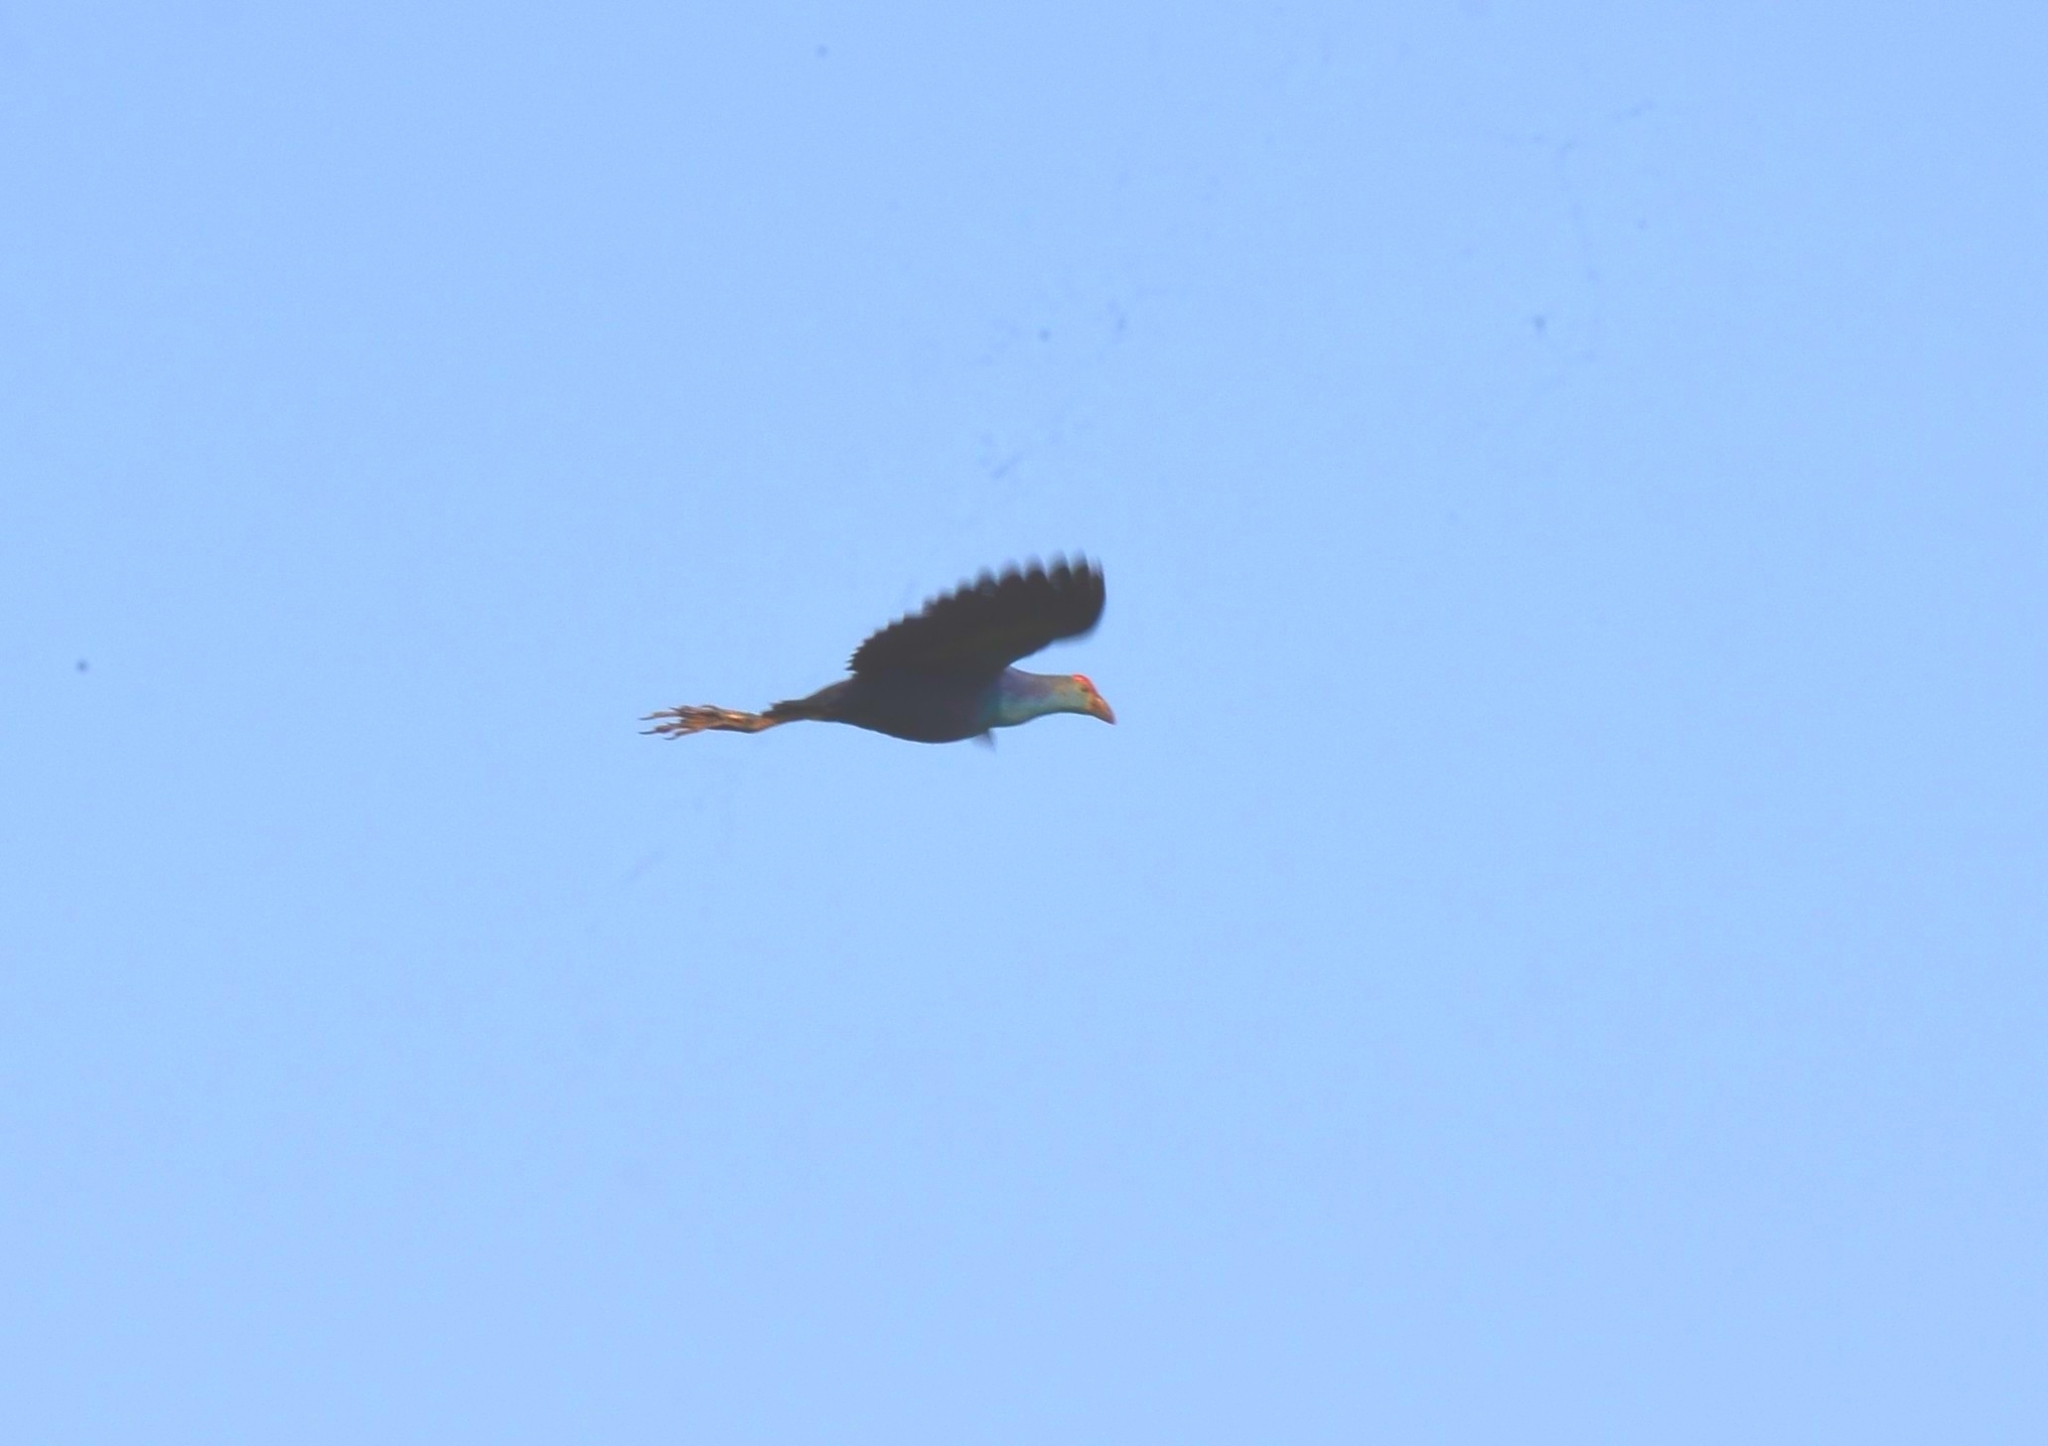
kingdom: Animalia
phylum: Chordata
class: Aves
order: Gruiformes
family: Rallidae
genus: Porphyrio
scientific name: Porphyrio porphyrio
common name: Purple swamphen
